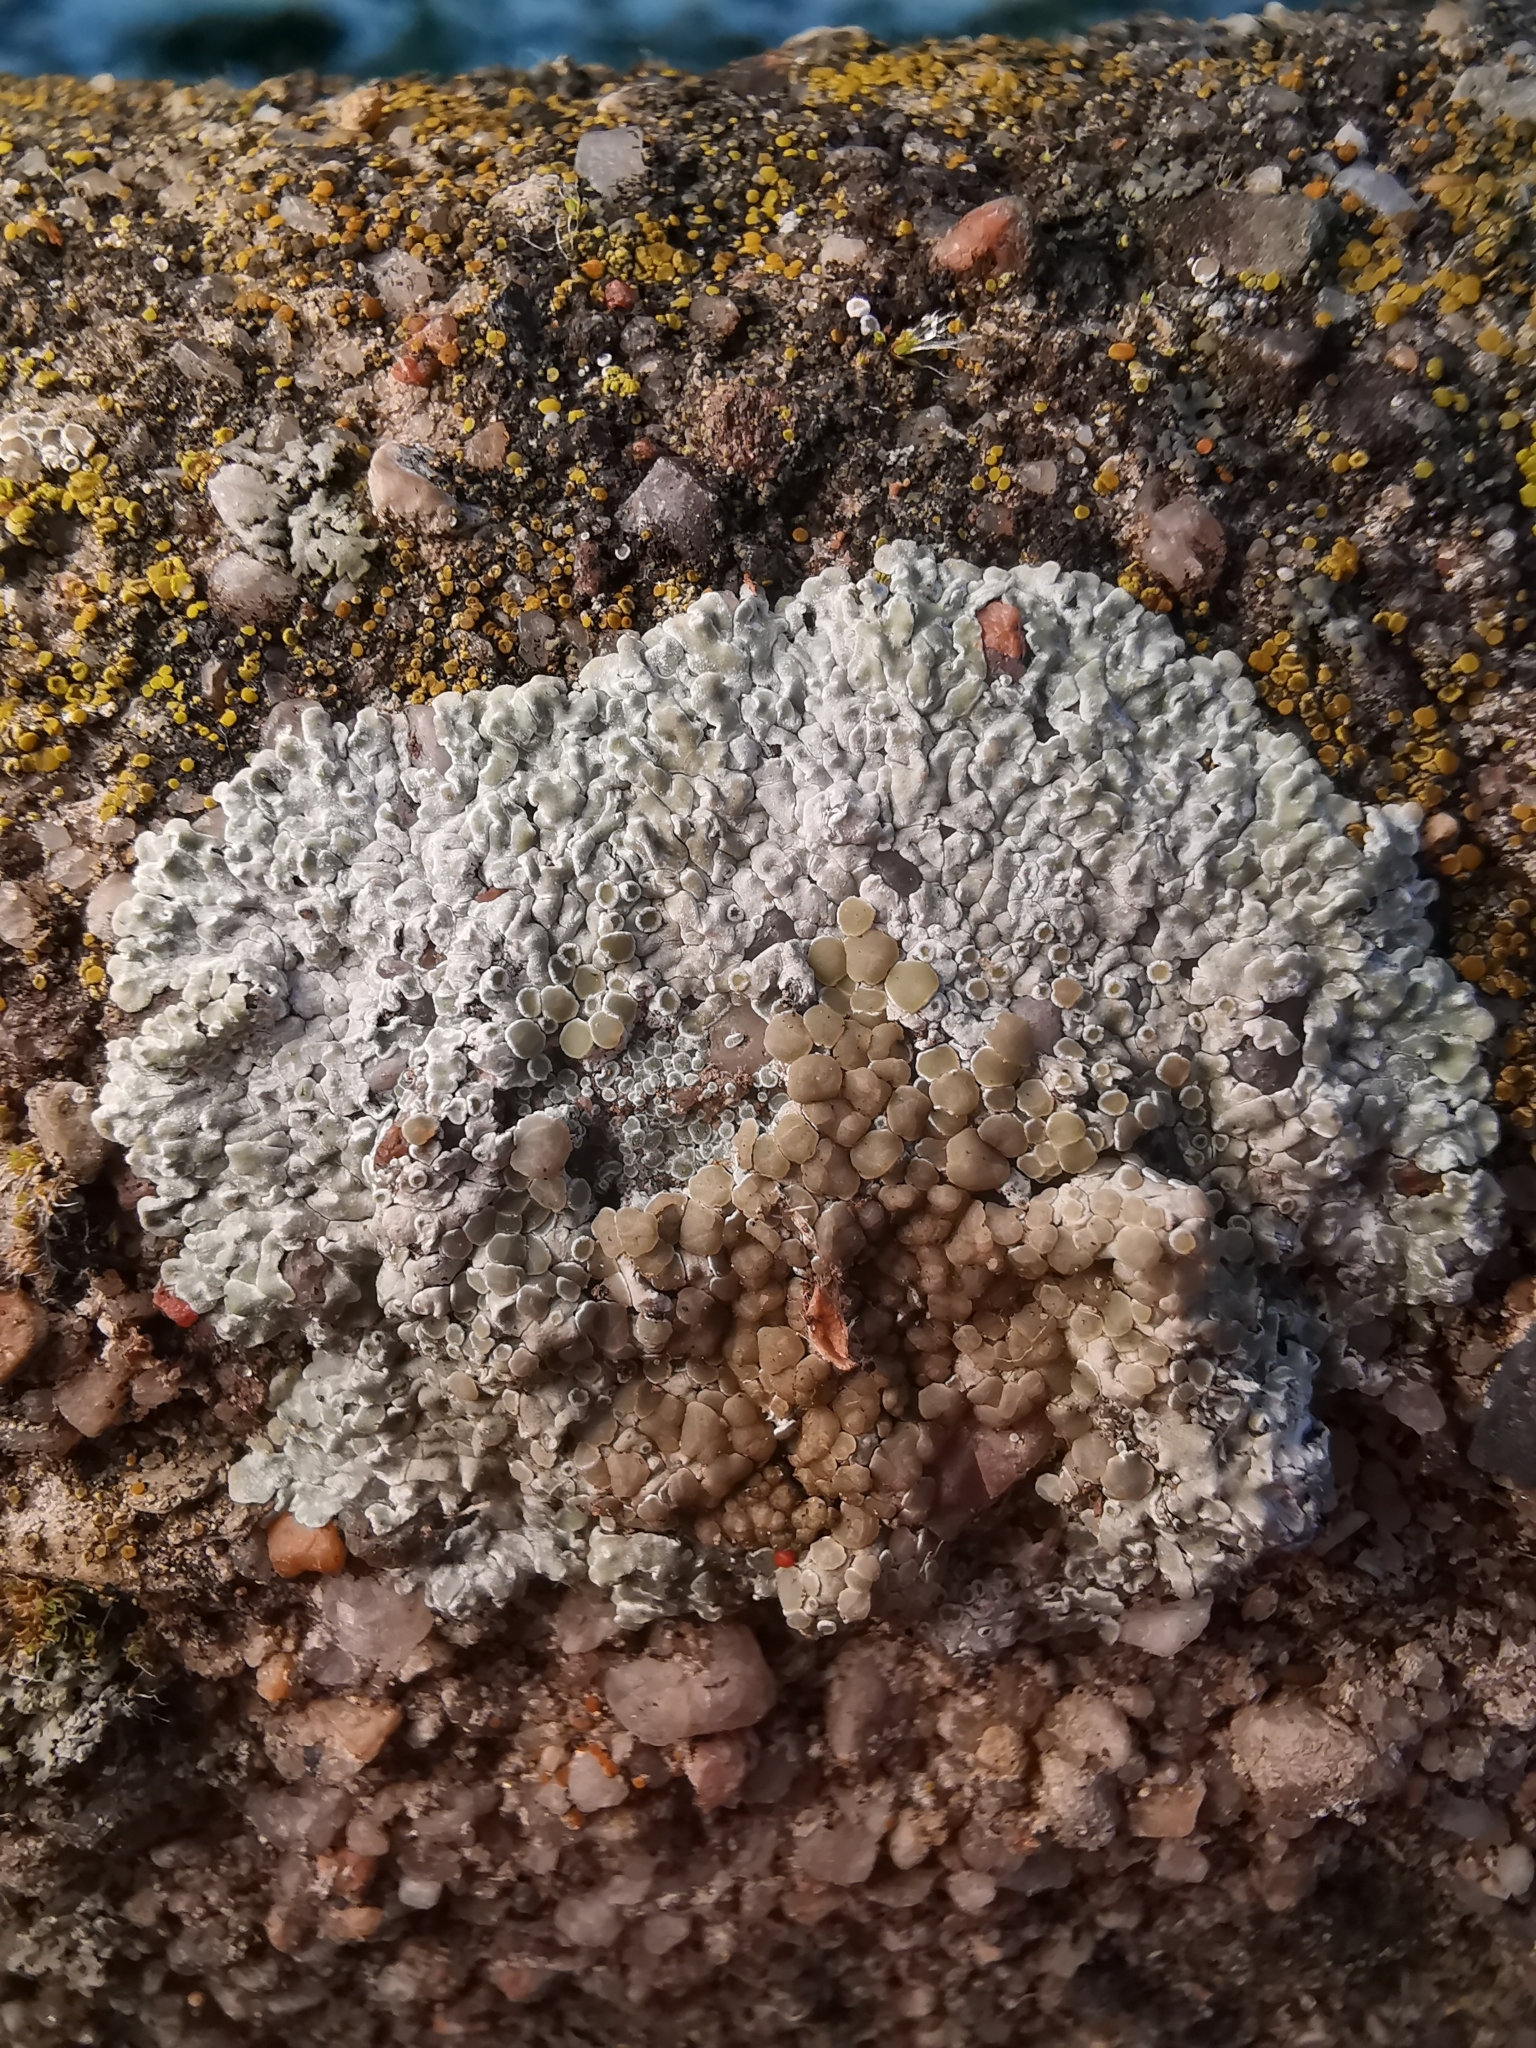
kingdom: Fungi
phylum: Ascomycota
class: Lecanoromycetes
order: Lecanorales
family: Lecanoraceae
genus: Protoparmeliopsis
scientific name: Protoparmeliopsis muralis
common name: Stonewall rim lichen
